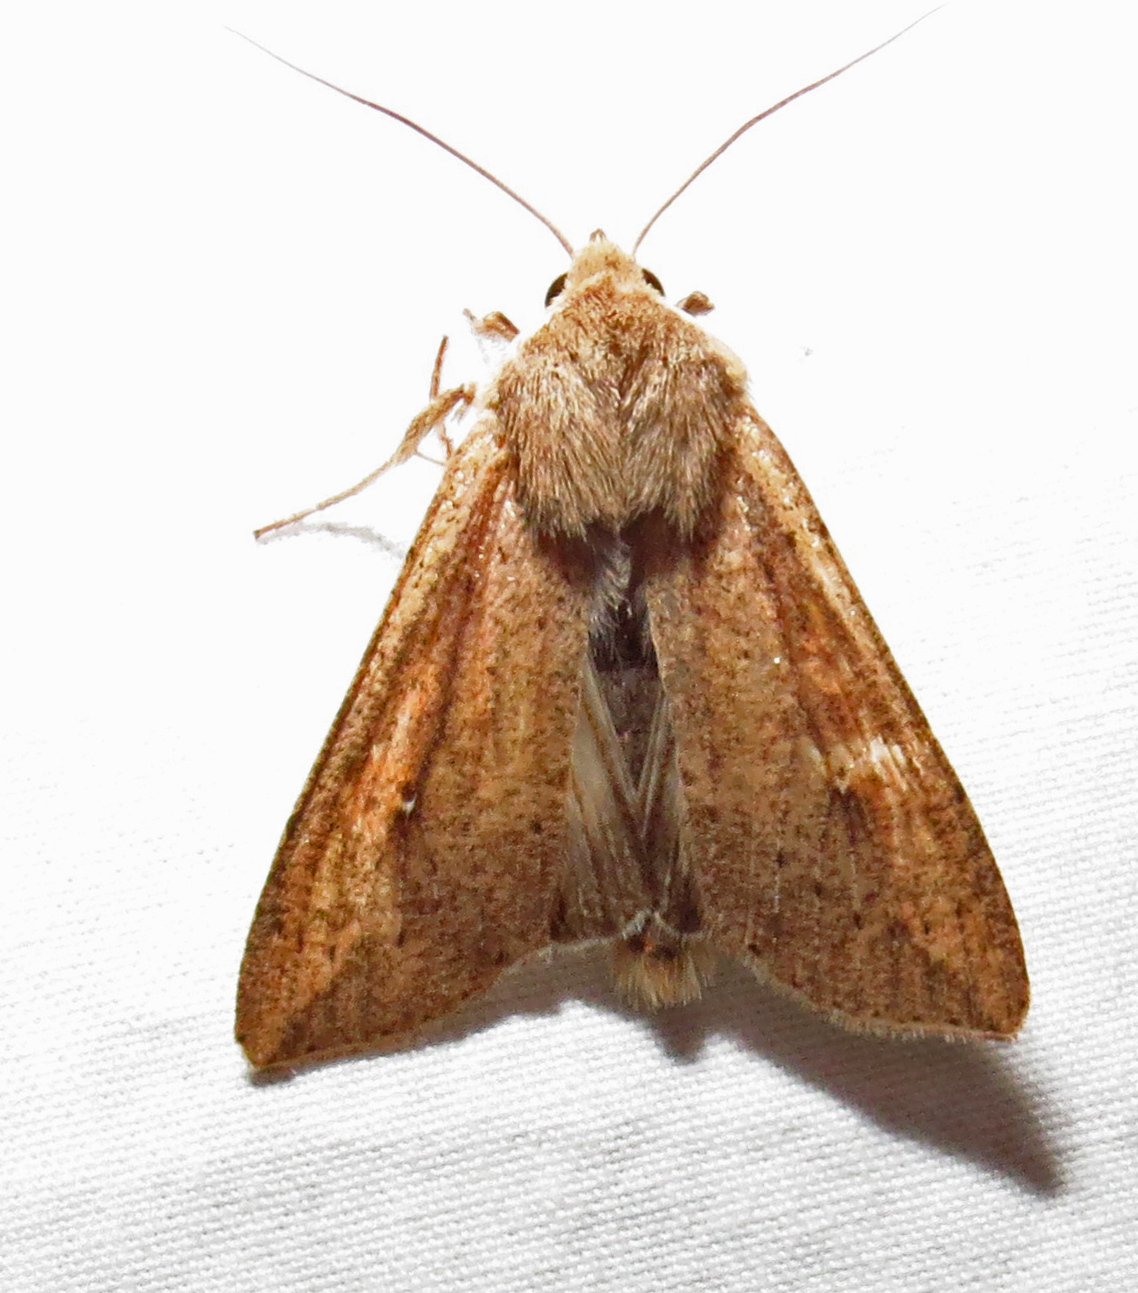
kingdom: Animalia
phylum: Arthropoda
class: Insecta
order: Lepidoptera
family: Noctuidae
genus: Mythimna
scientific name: Mythimna unipuncta
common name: White-speck
